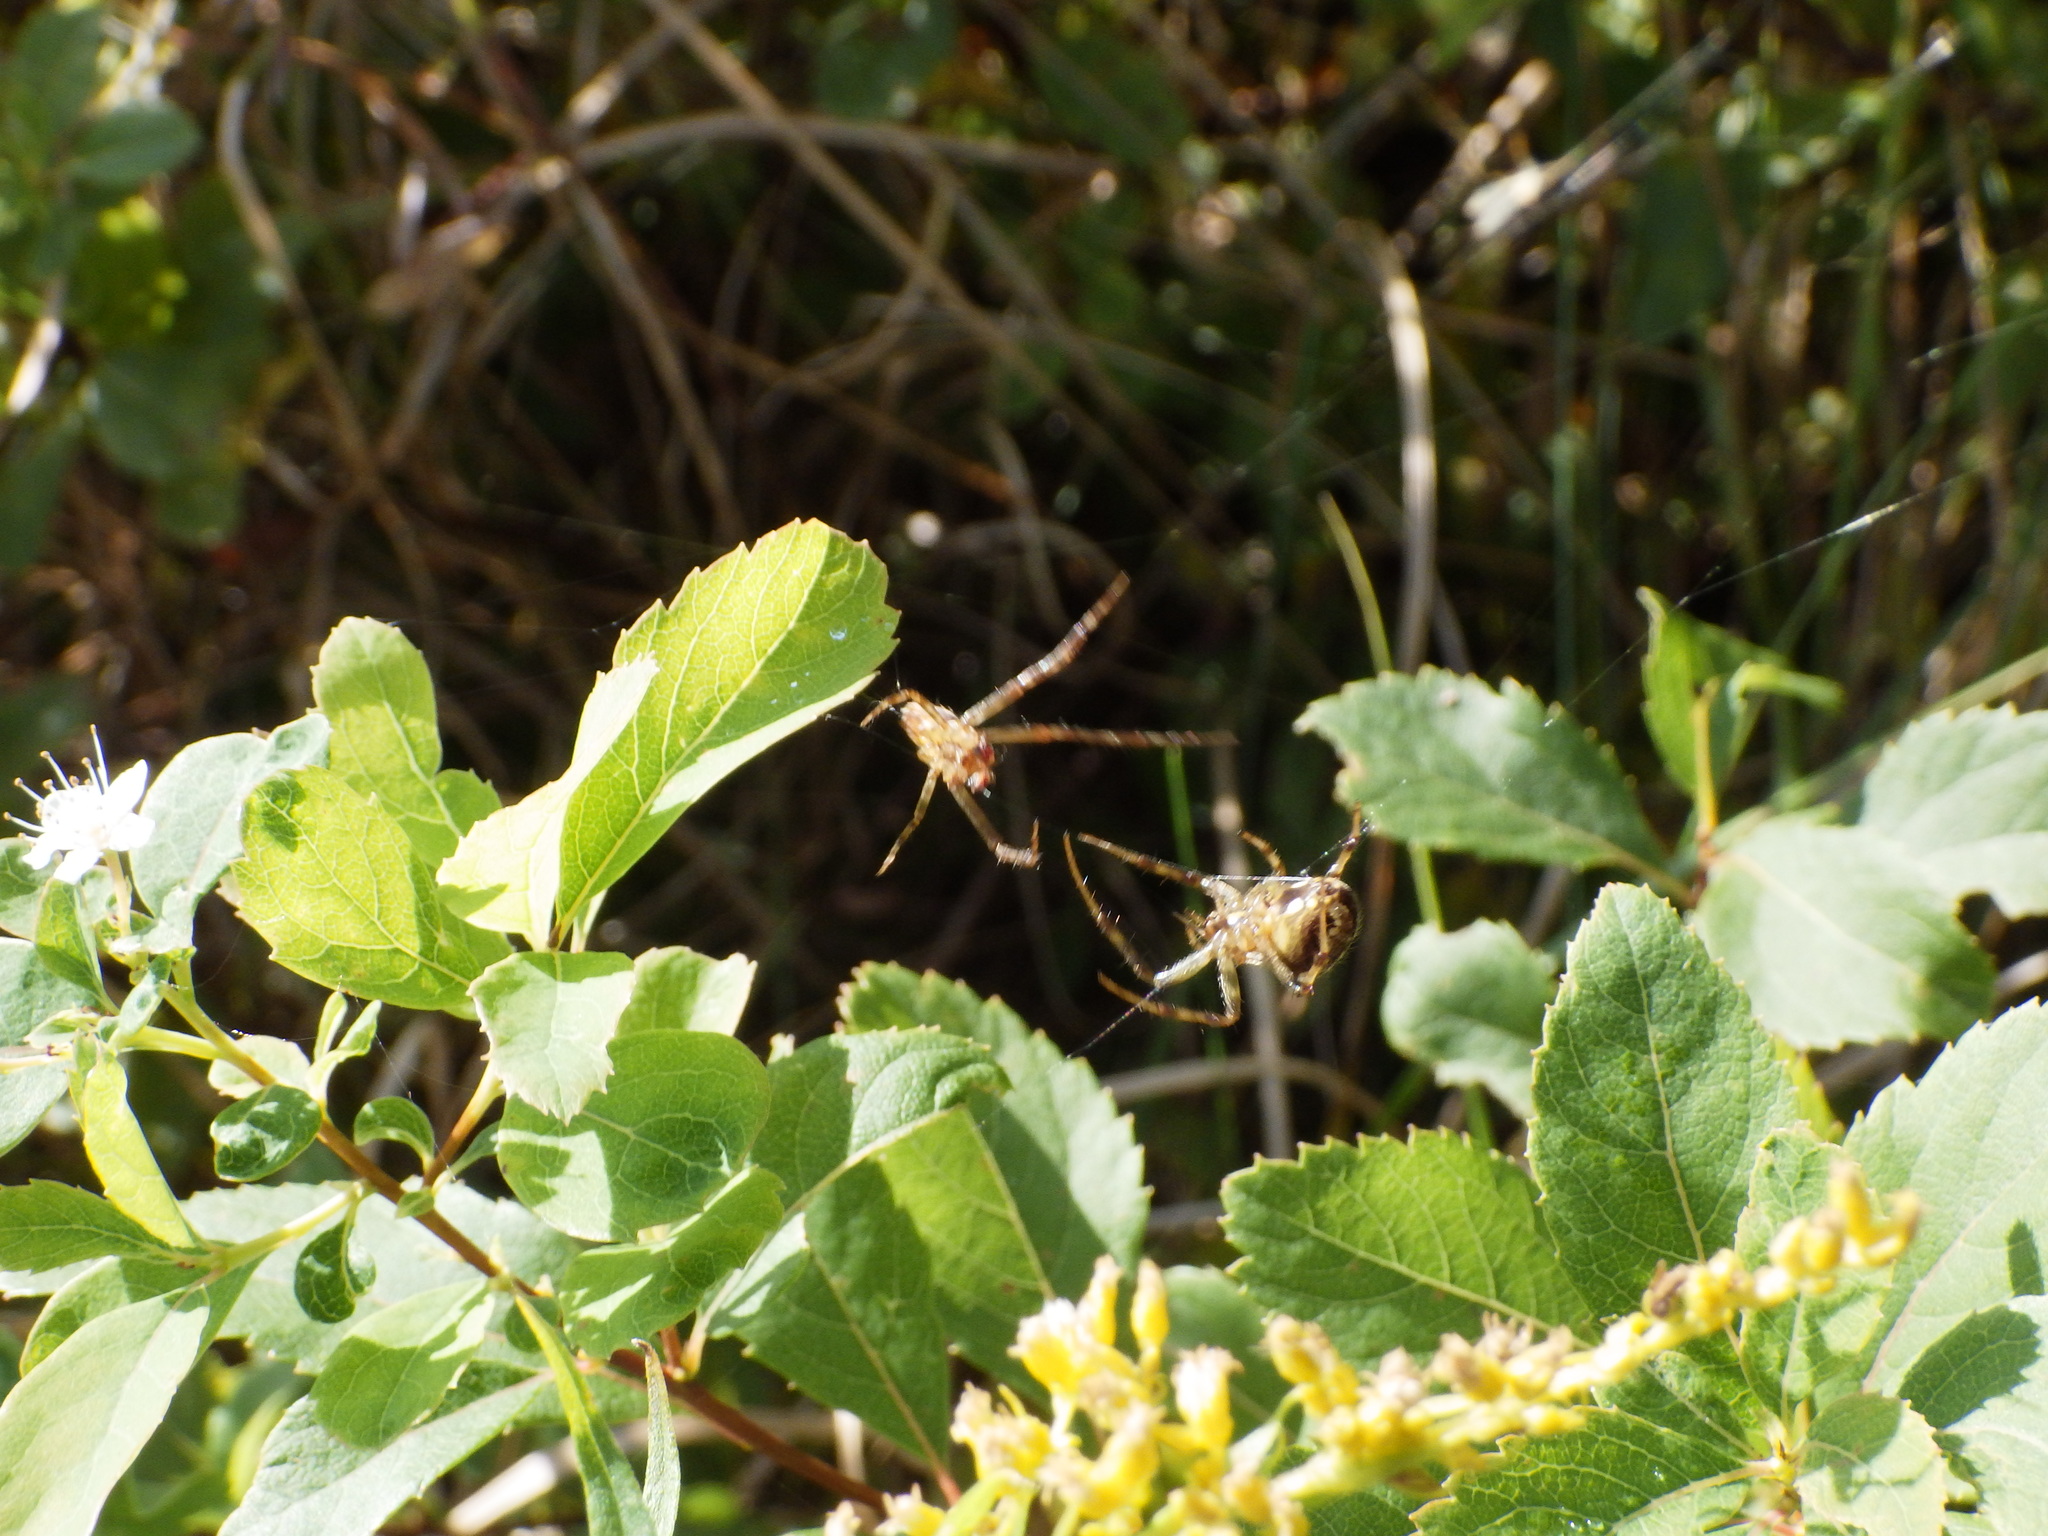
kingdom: Animalia
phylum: Arthropoda
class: Arachnida
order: Araneae
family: Araneidae
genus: Neoscona
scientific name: Neoscona arabesca
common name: Orb weavers
